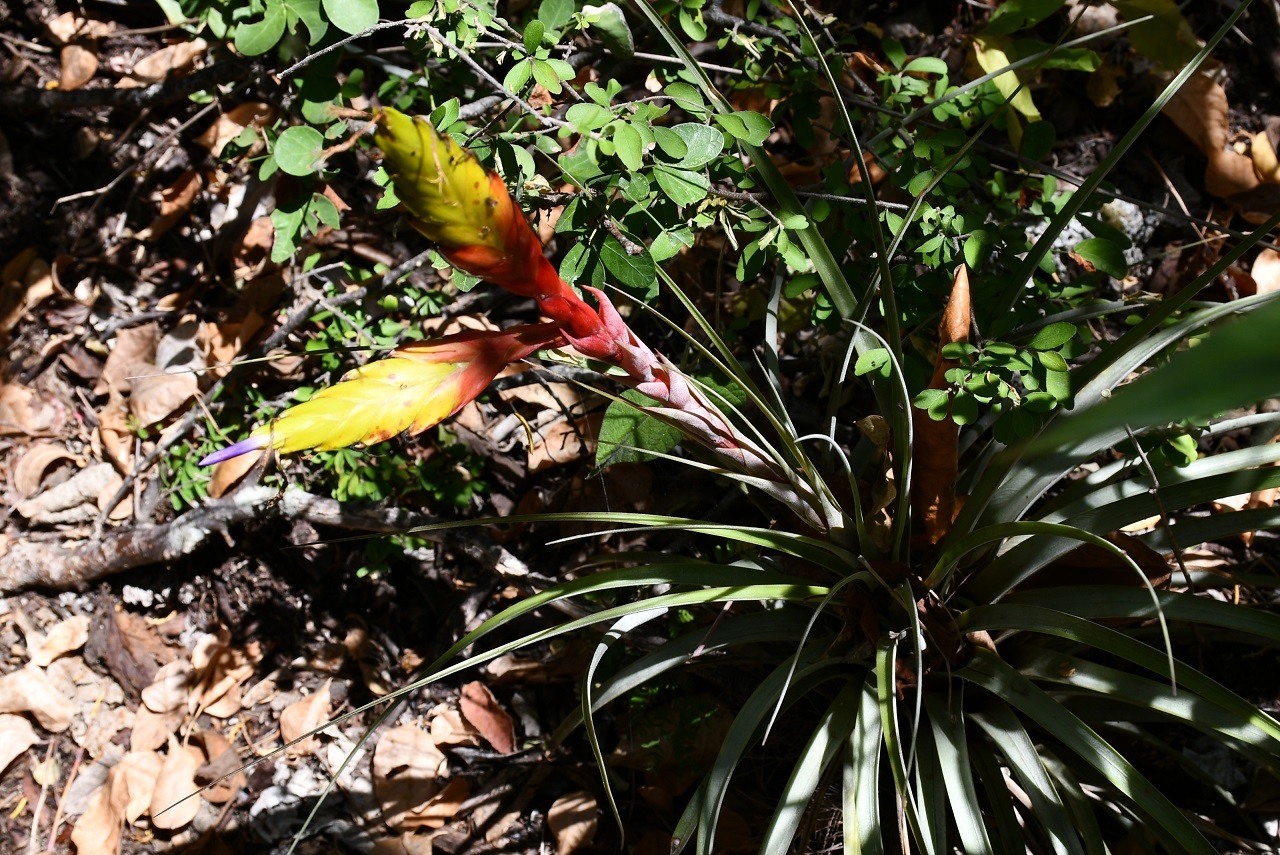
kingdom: Plantae
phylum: Tracheophyta
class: Liliopsida
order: Poales
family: Bromeliaceae
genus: Tillandsia
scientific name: Tillandsia fasciculata
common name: Giant airplant
